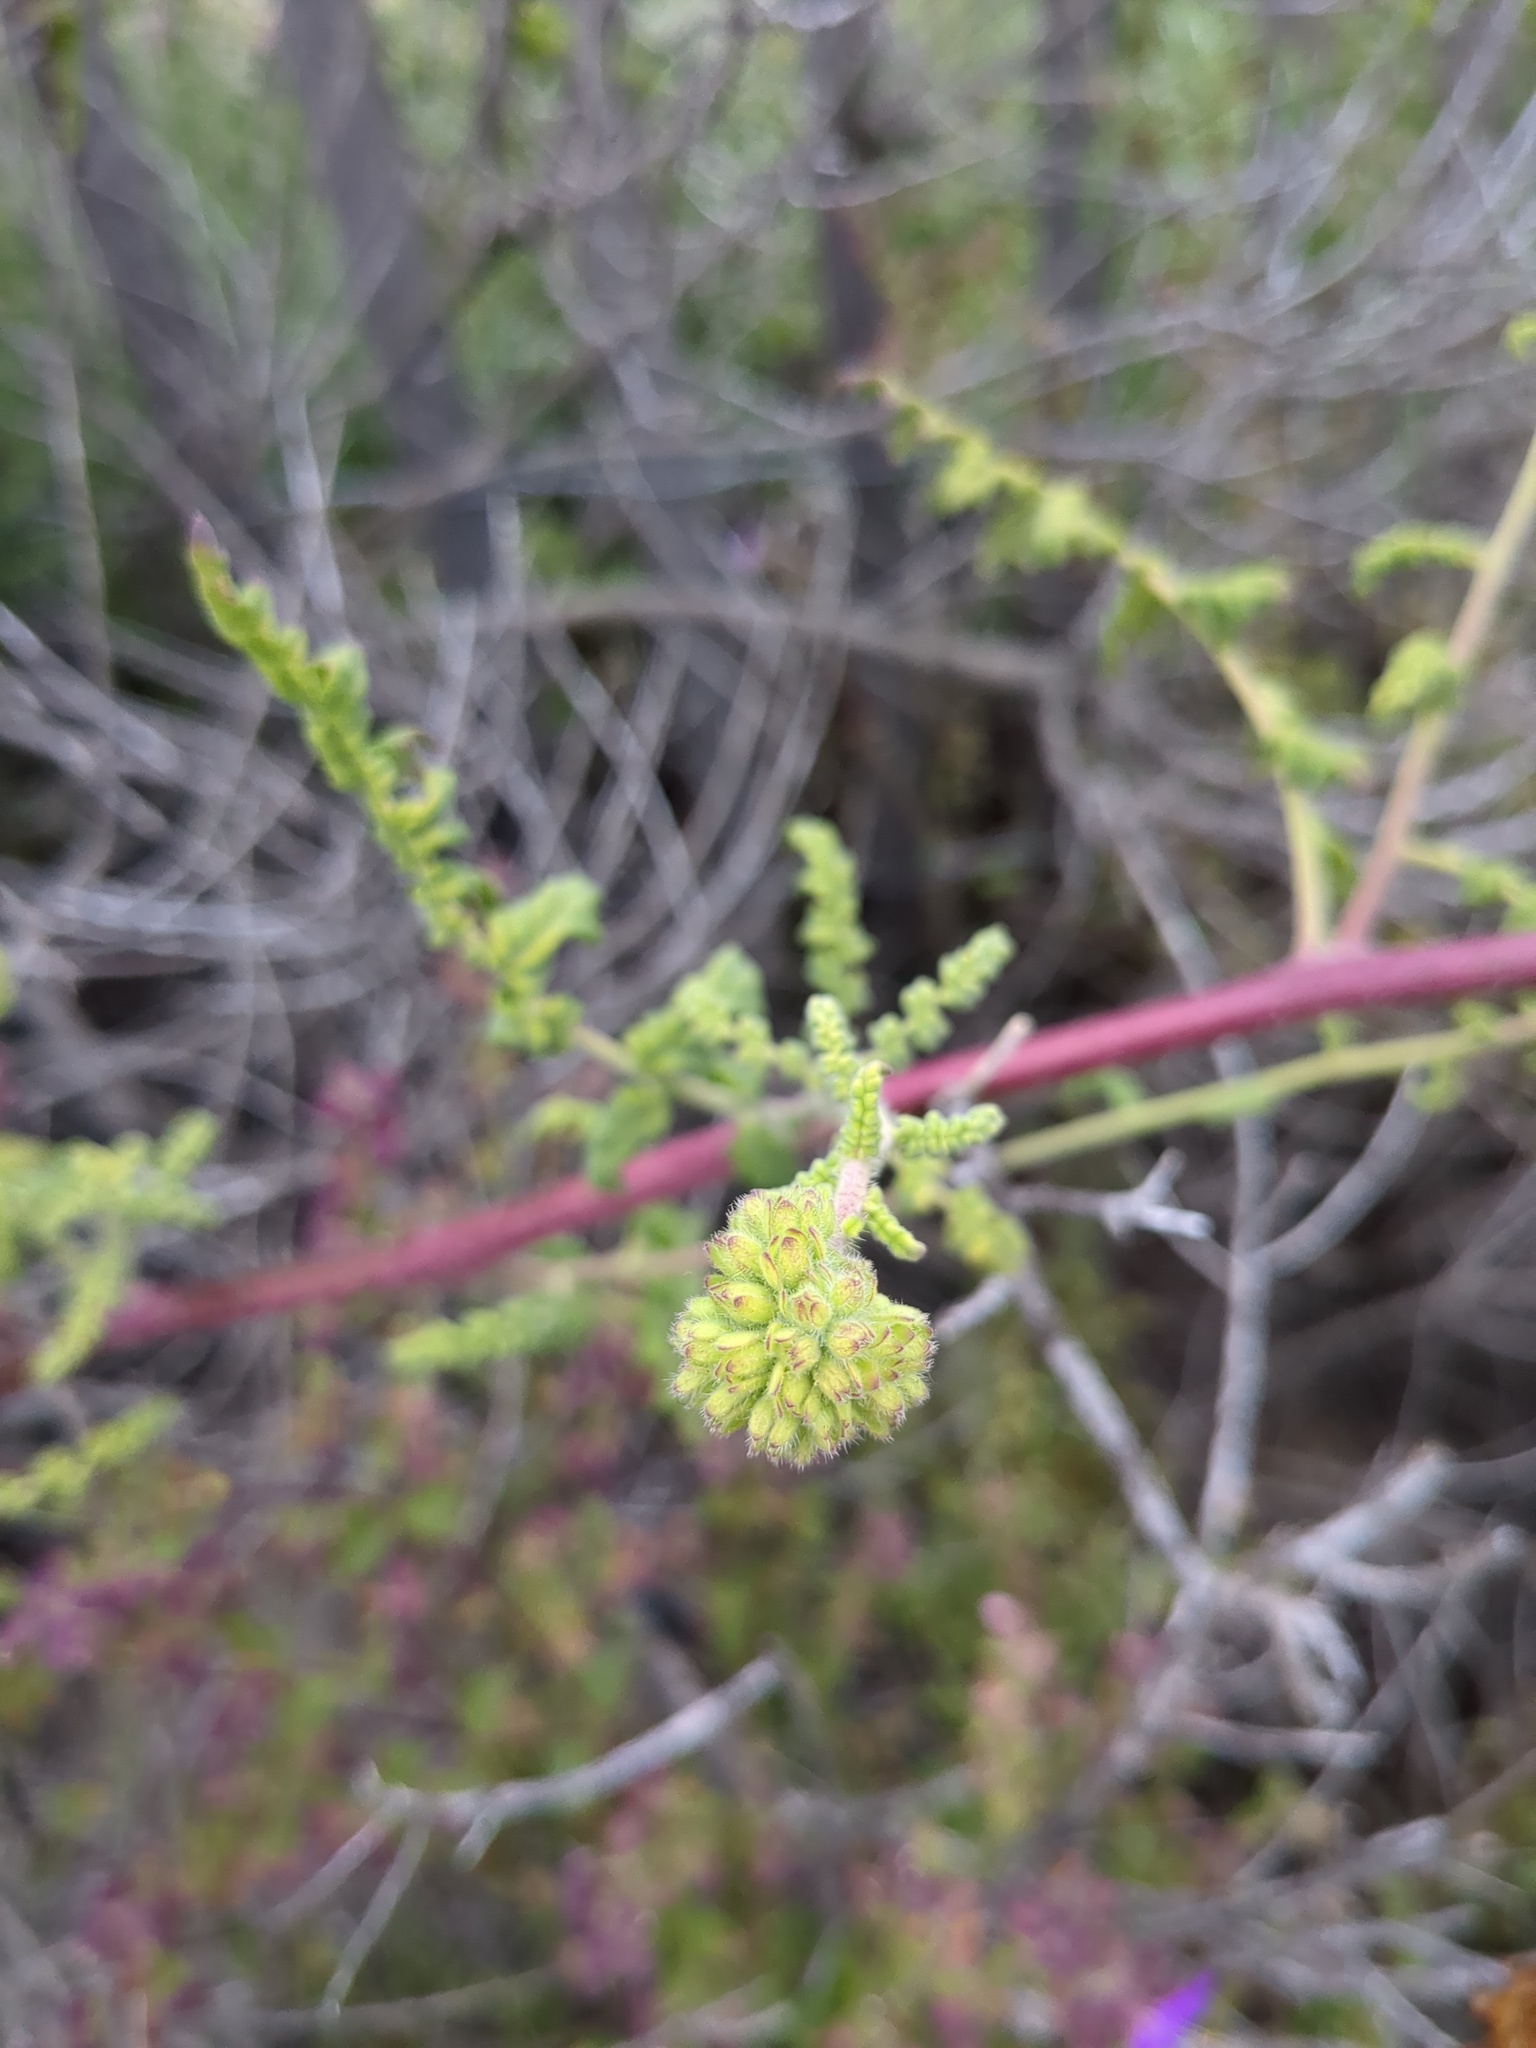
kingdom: Plantae
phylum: Tracheophyta
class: Magnoliopsida
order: Boraginales
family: Hydrophyllaceae
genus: Phacelia
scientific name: Phacelia ramosissima
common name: Branching phacelia
